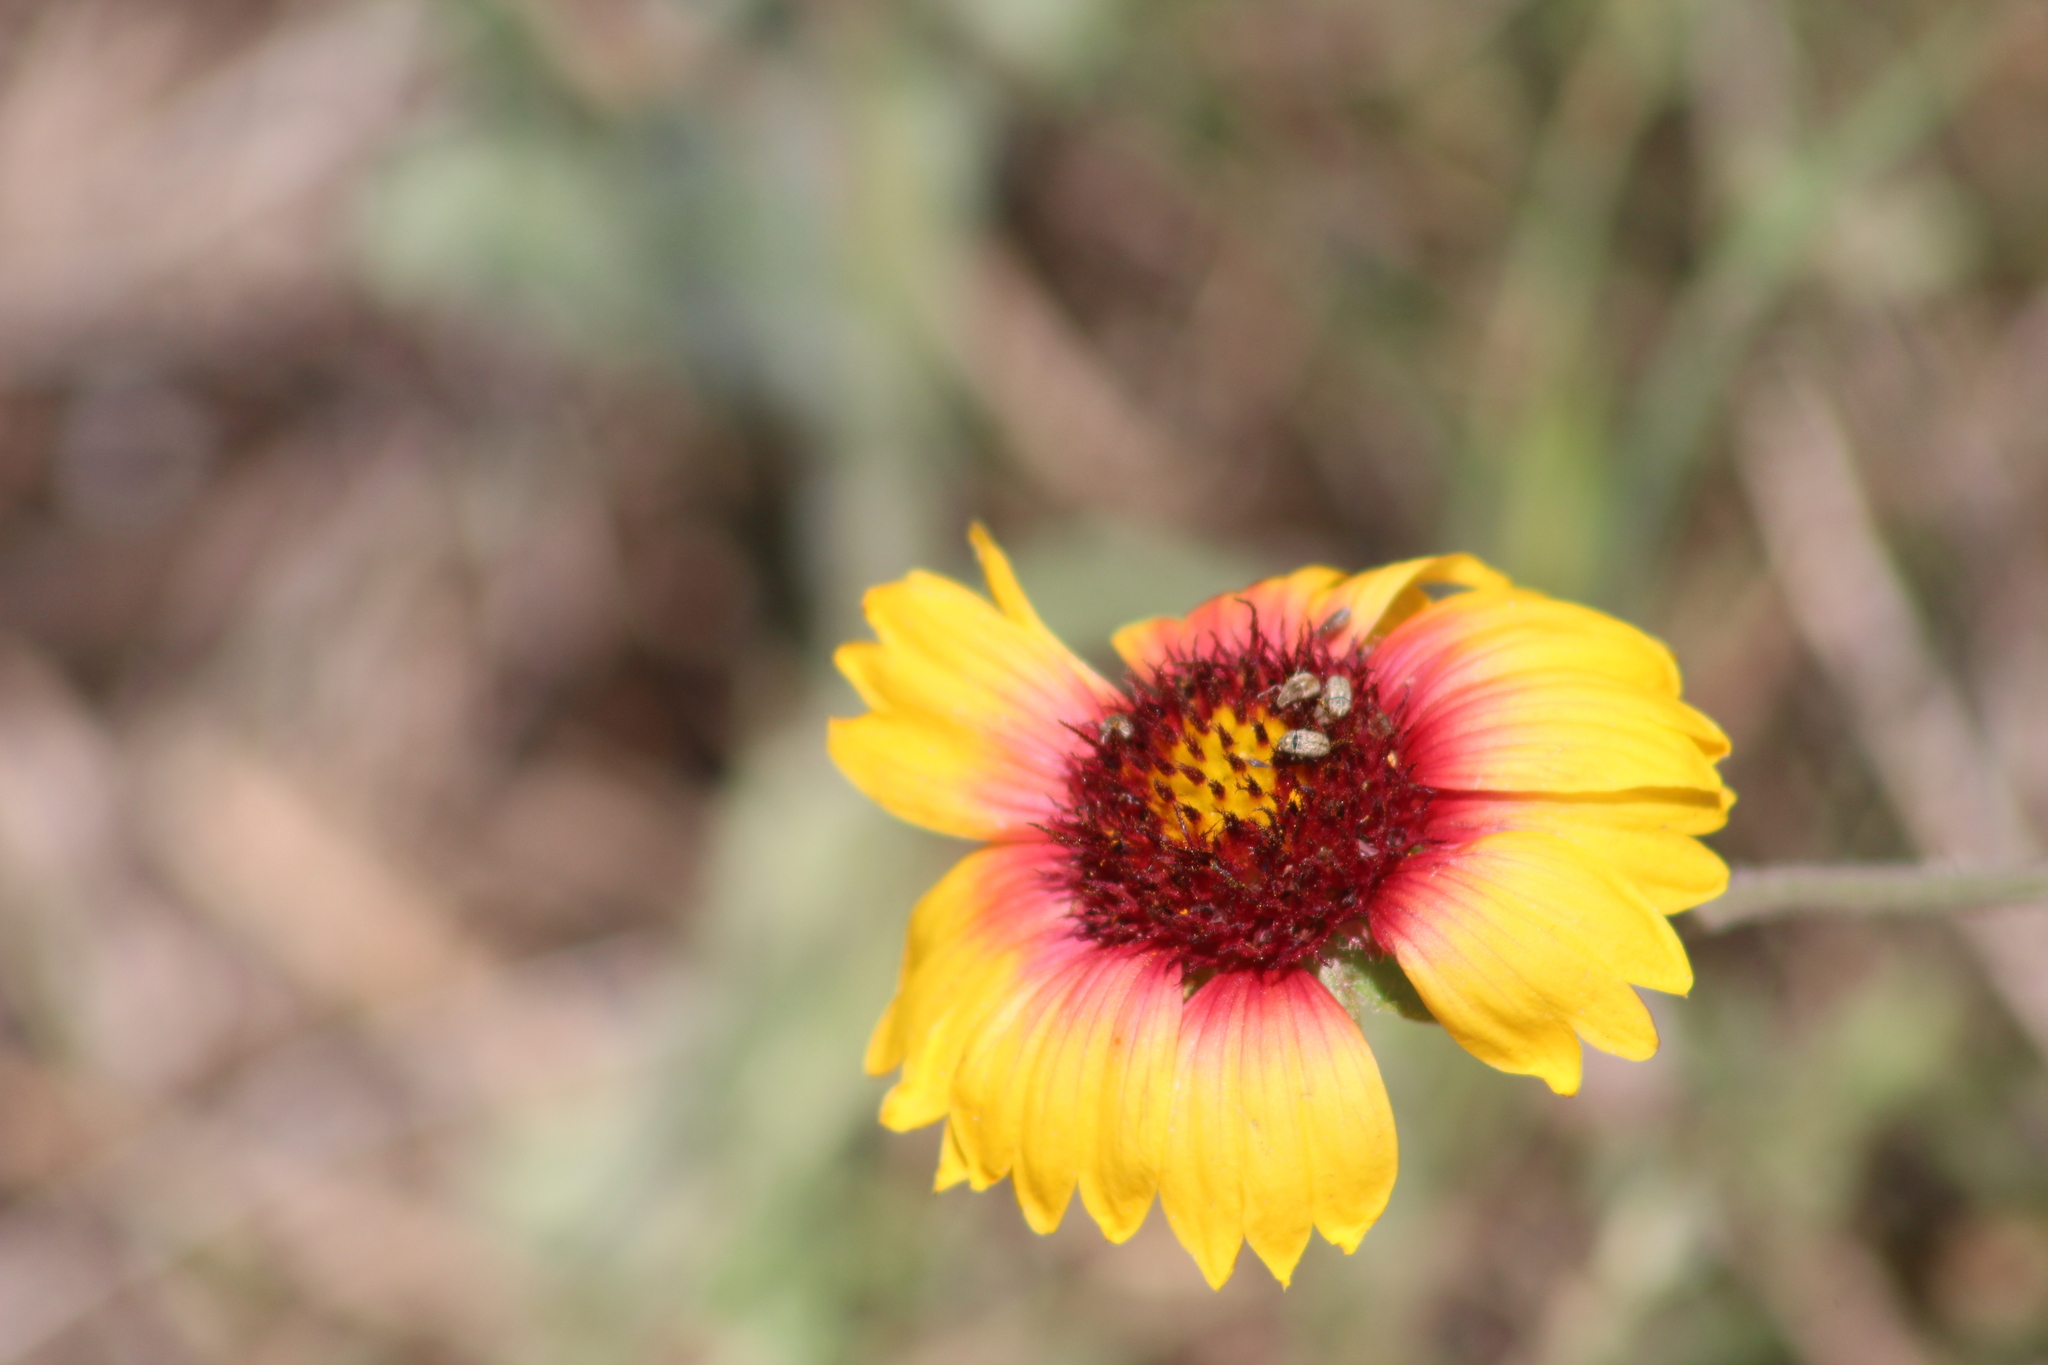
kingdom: Plantae
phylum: Tracheophyta
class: Magnoliopsida
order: Asterales
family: Asteraceae
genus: Gaillardia
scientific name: Gaillardia pulchella
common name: Firewheel
